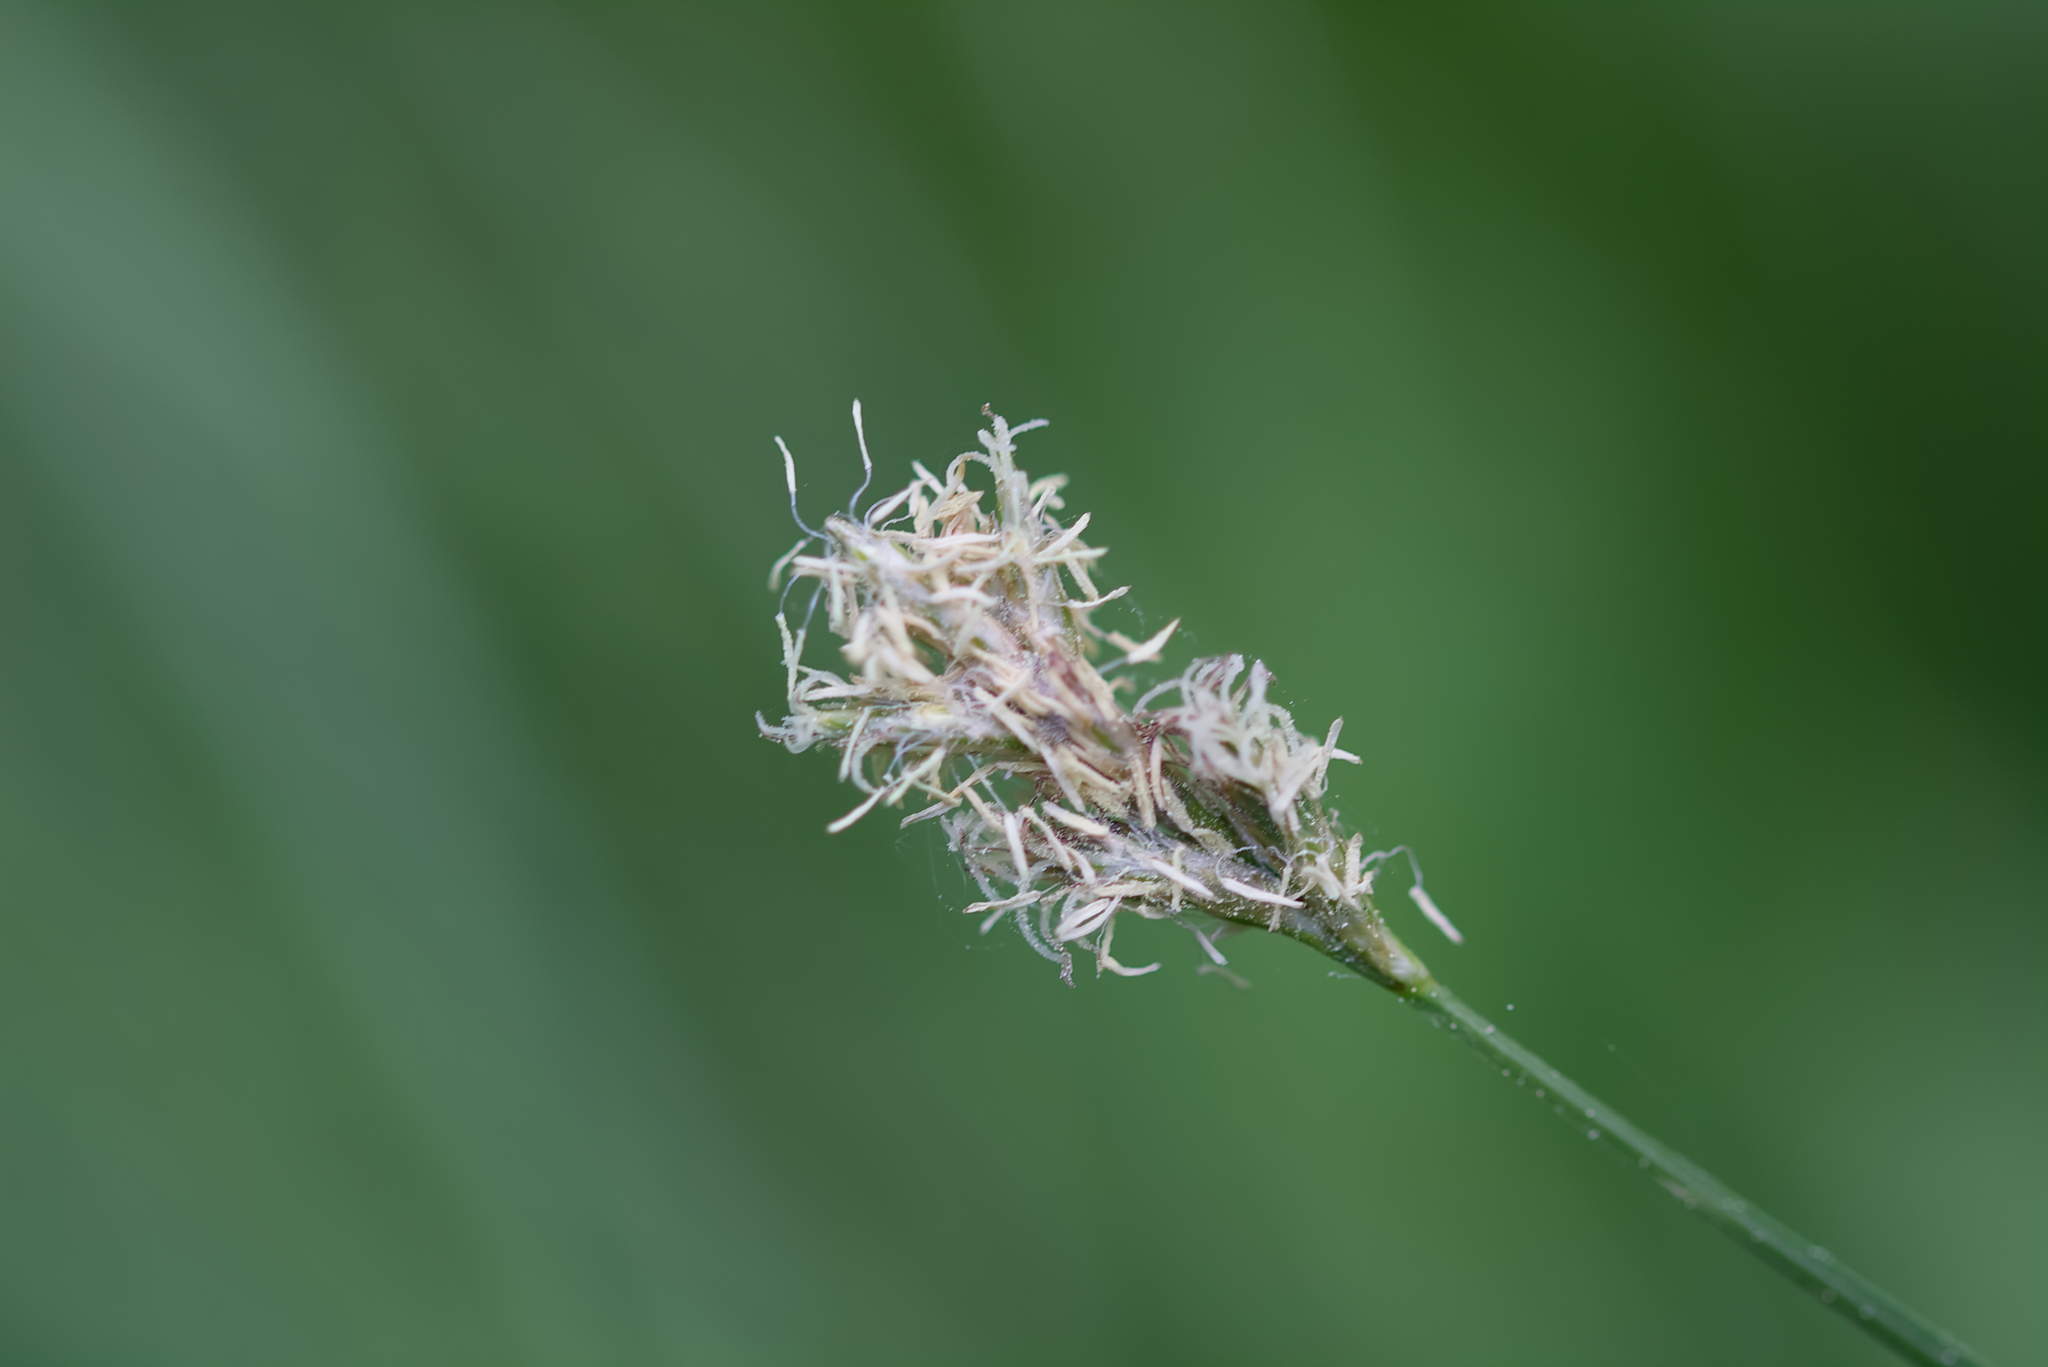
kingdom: Plantae
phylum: Tracheophyta
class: Liliopsida
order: Poales
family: Cyperaceae
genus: Carex
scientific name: Carex brizoides
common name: Quaking-grass sedge
